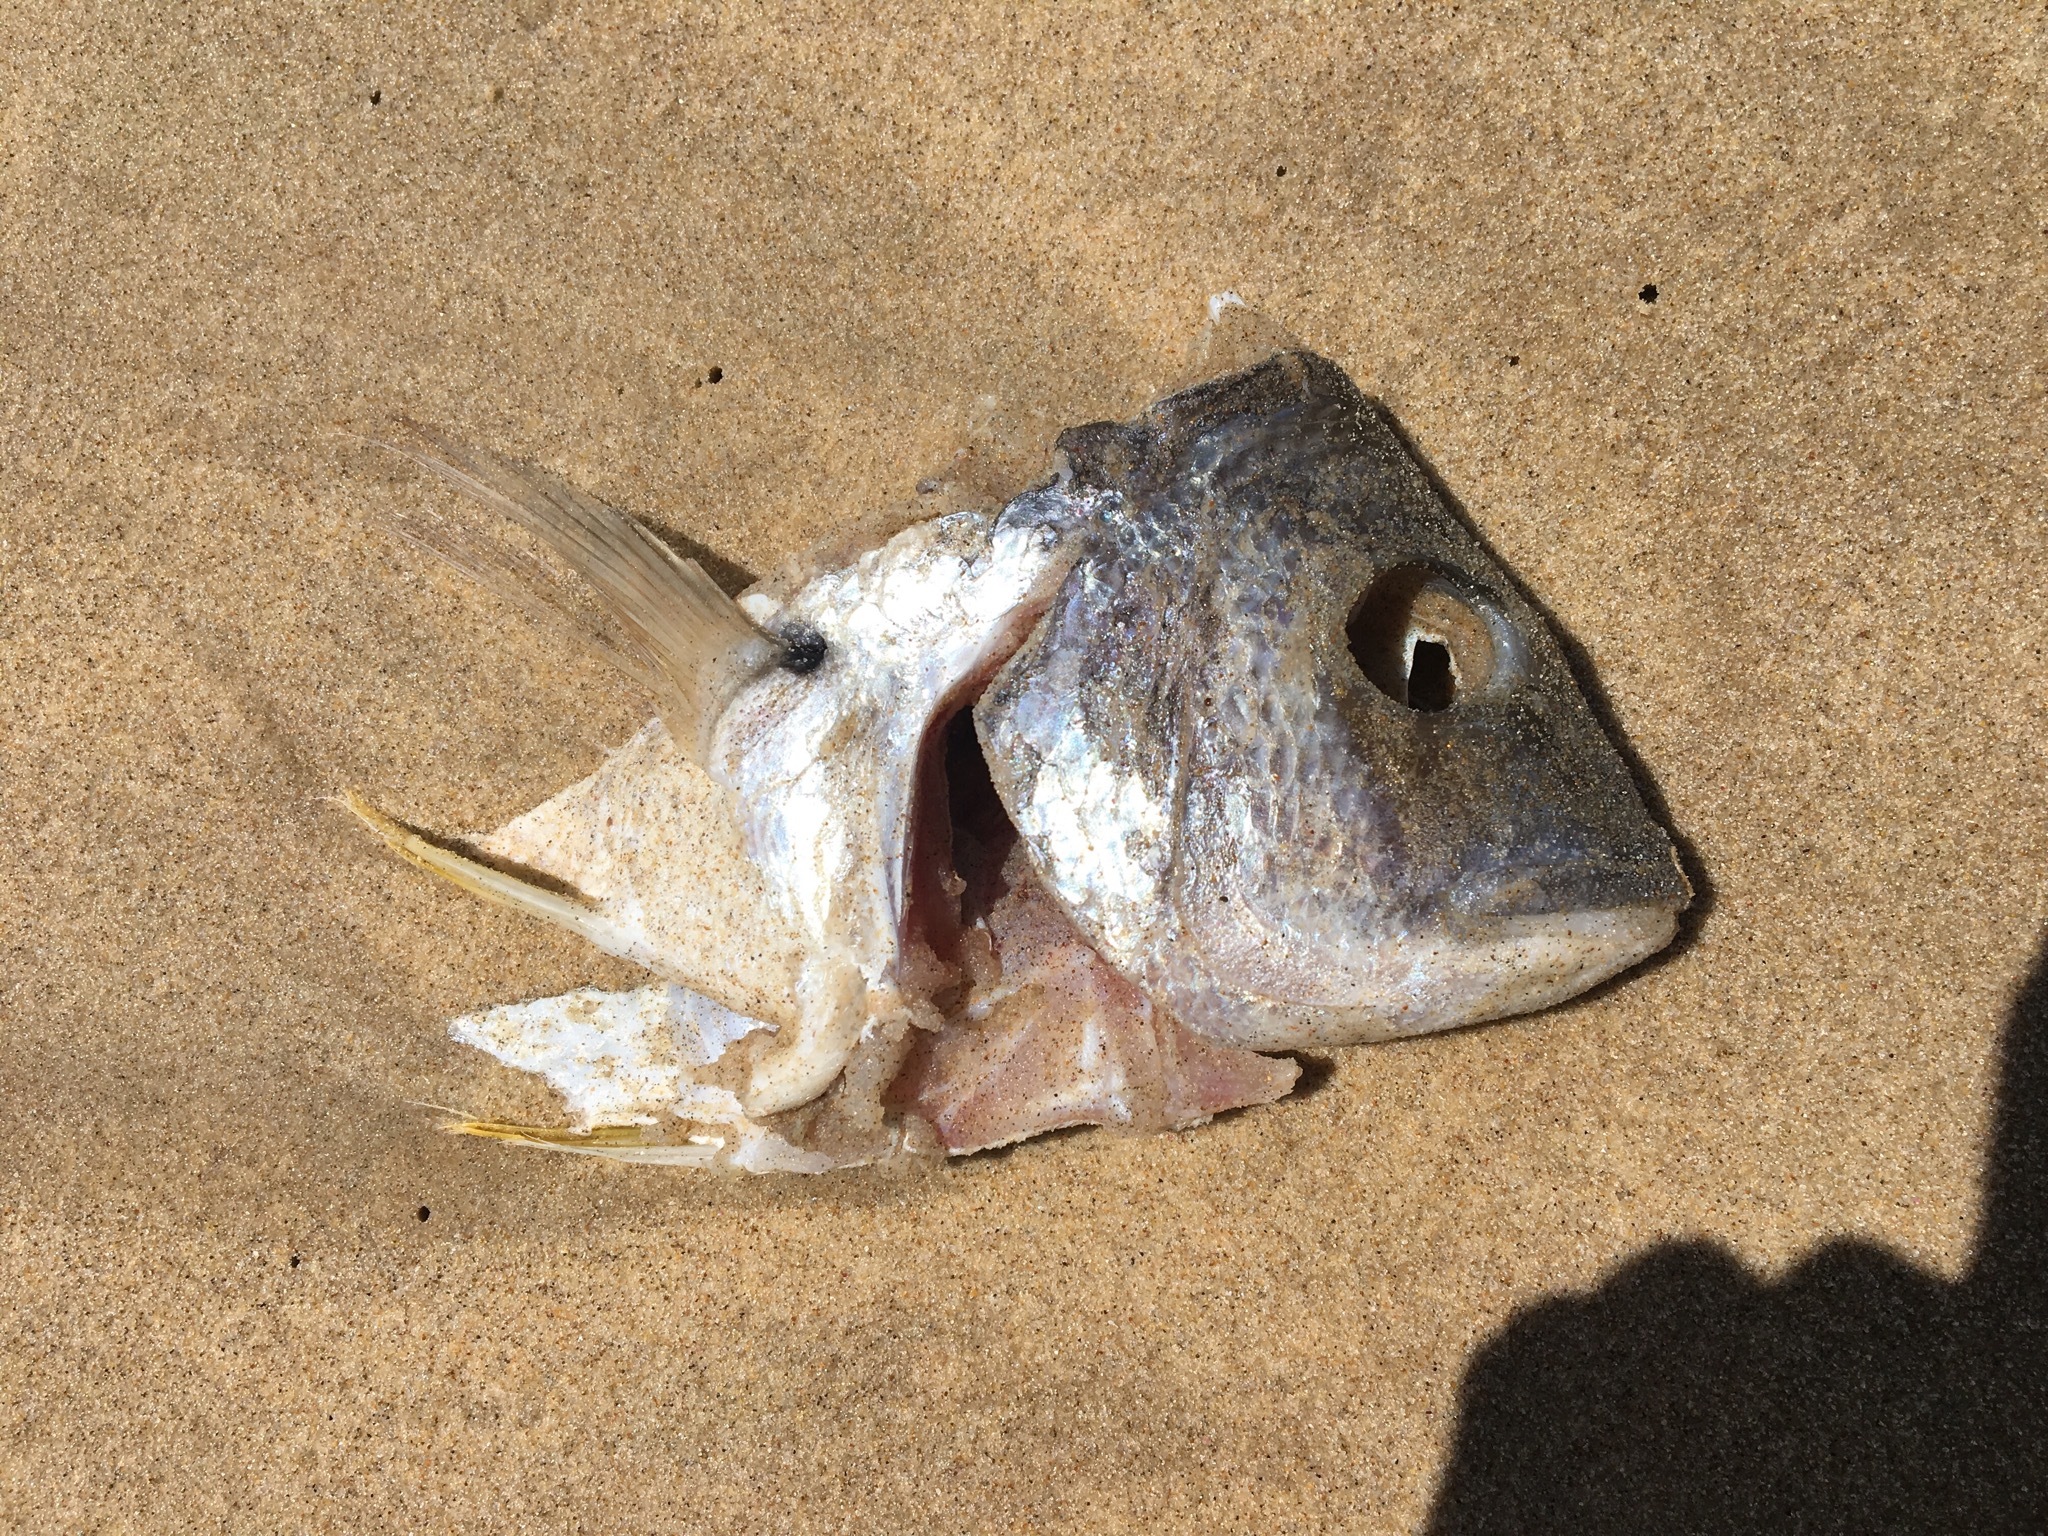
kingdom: Animalia
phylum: Chordata
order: Perciformes
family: Sparidae
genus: Acanthopagrus
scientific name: Acanthopagrus australis
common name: Surf bream
